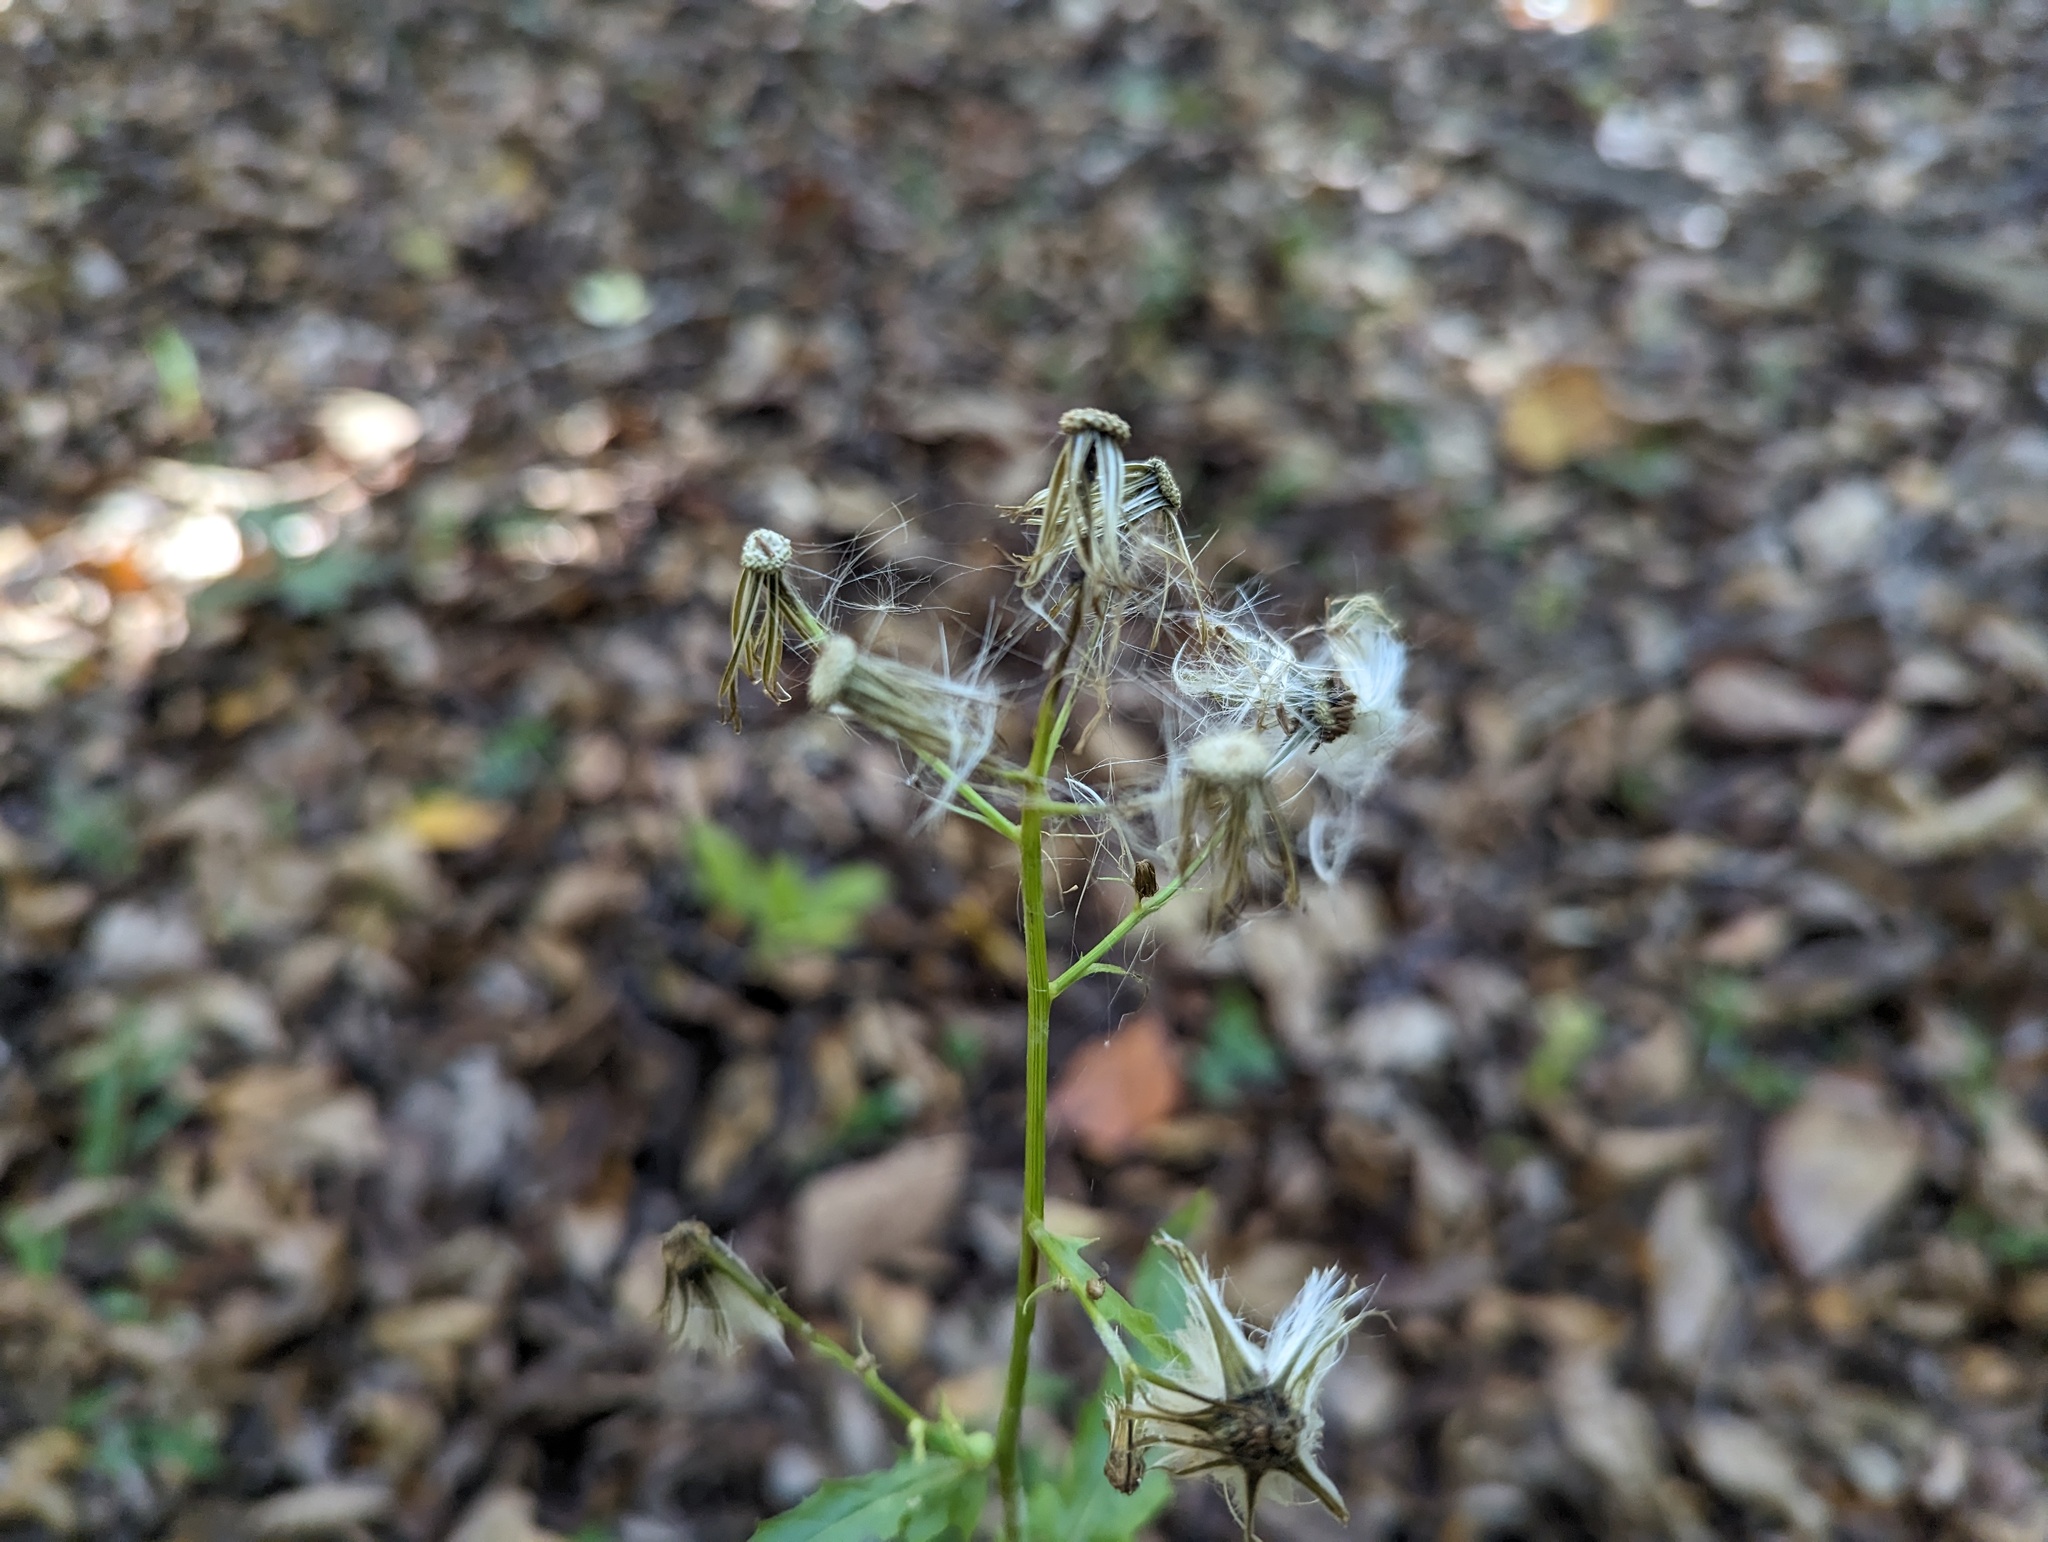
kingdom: Plantae
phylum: Tracheophyta
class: Magnoliopsida
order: Asterales
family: Asteraceae
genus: Erechtites
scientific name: Erechtites hieraciifolius
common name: American burnweed
